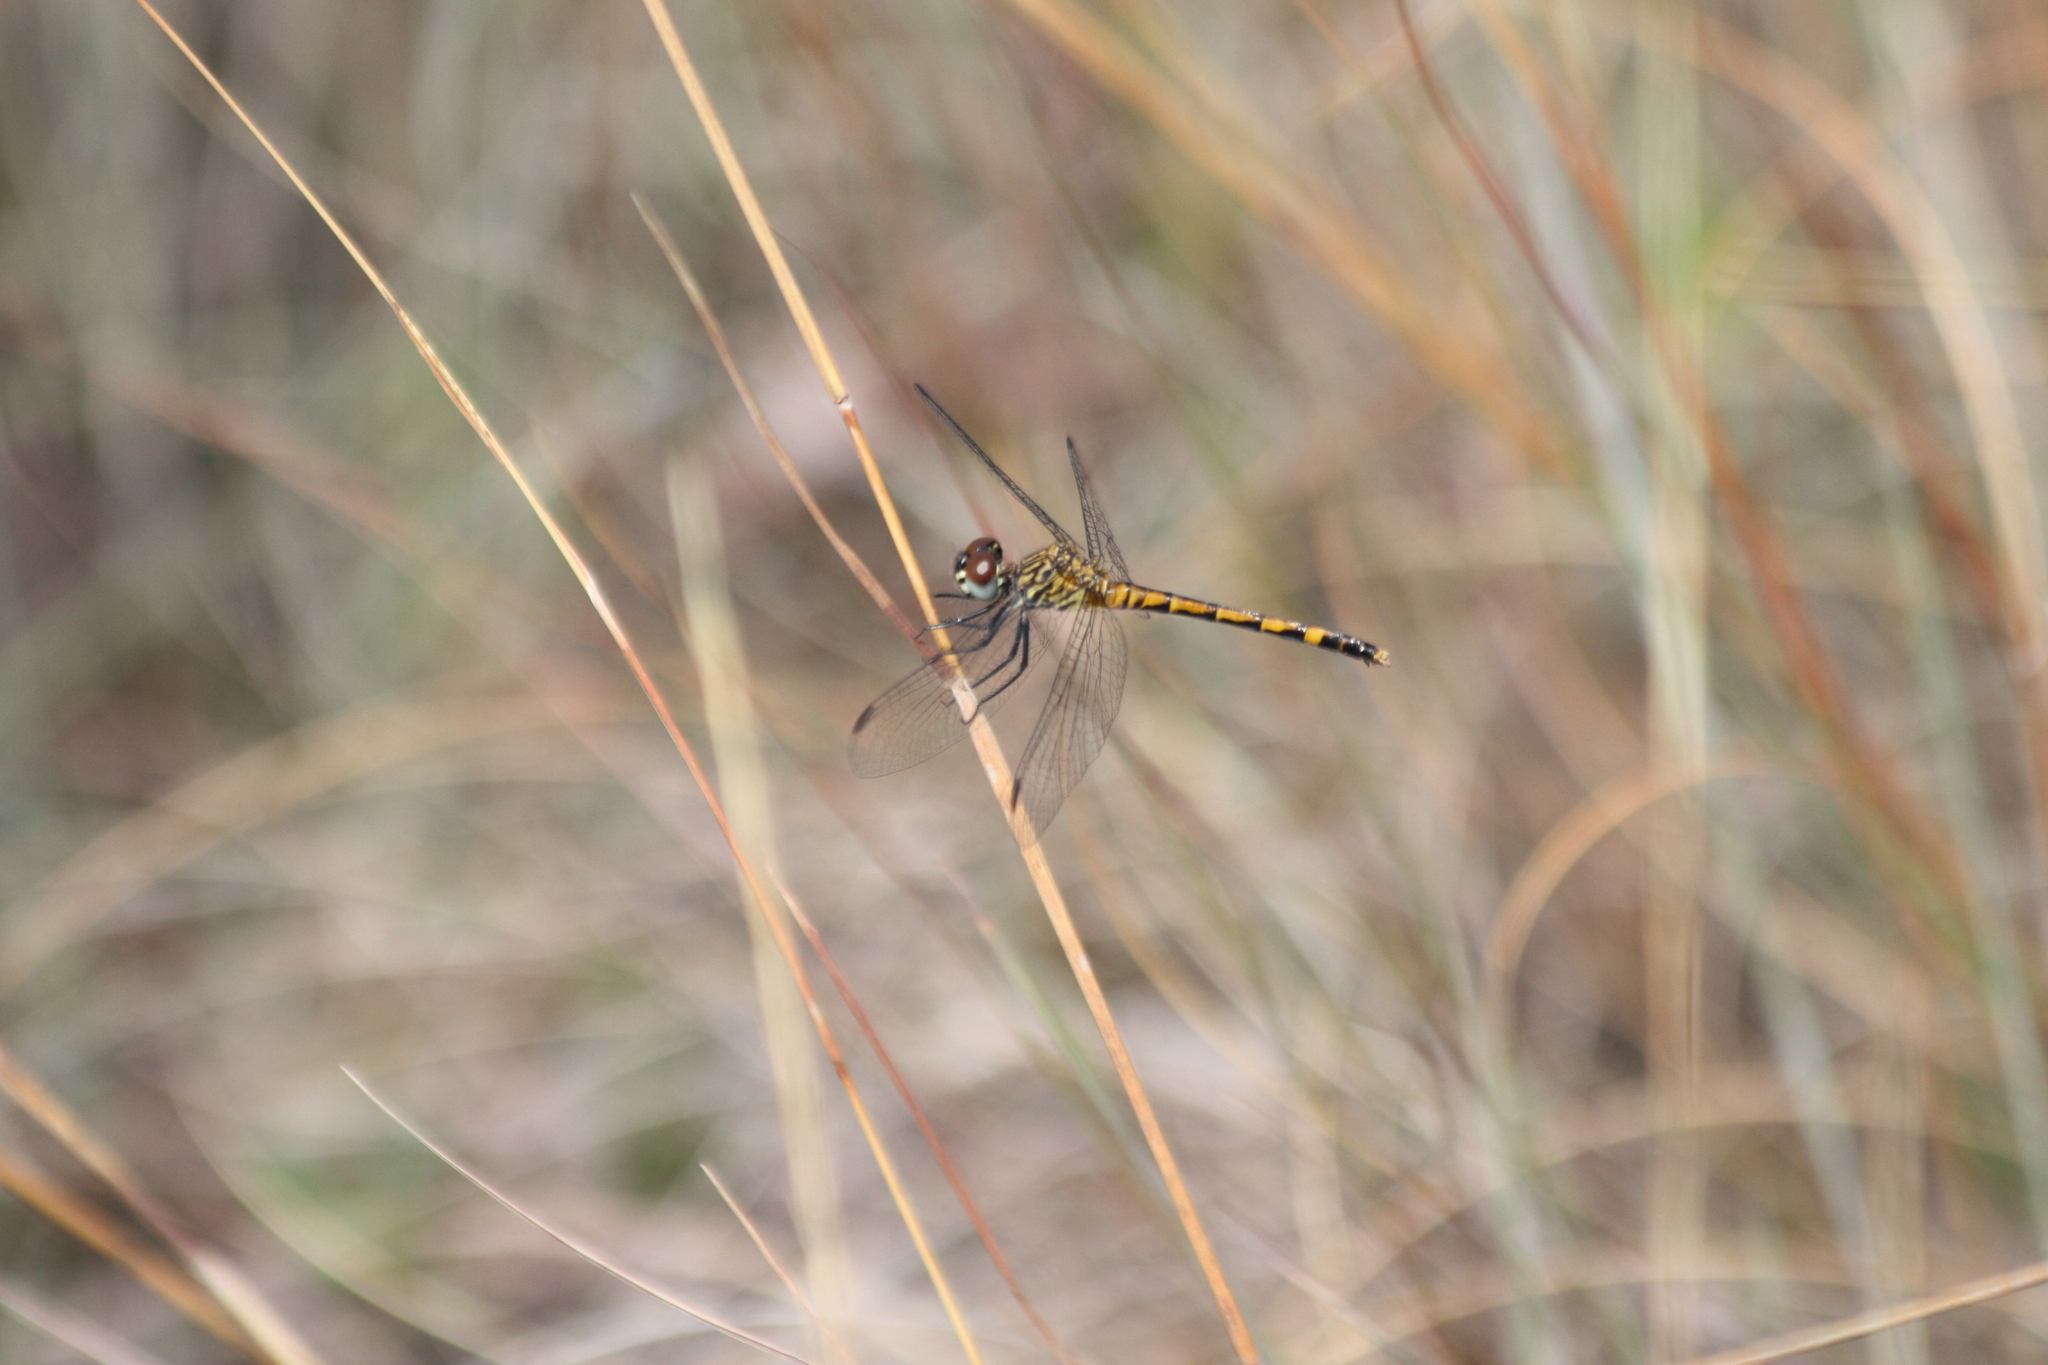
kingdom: Animalia
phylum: Arthropoda
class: Insecta
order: Odonata
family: Libellulidae
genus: Erythrodiplax
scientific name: Erythrodiplax berenice
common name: Seaside dragonlet
